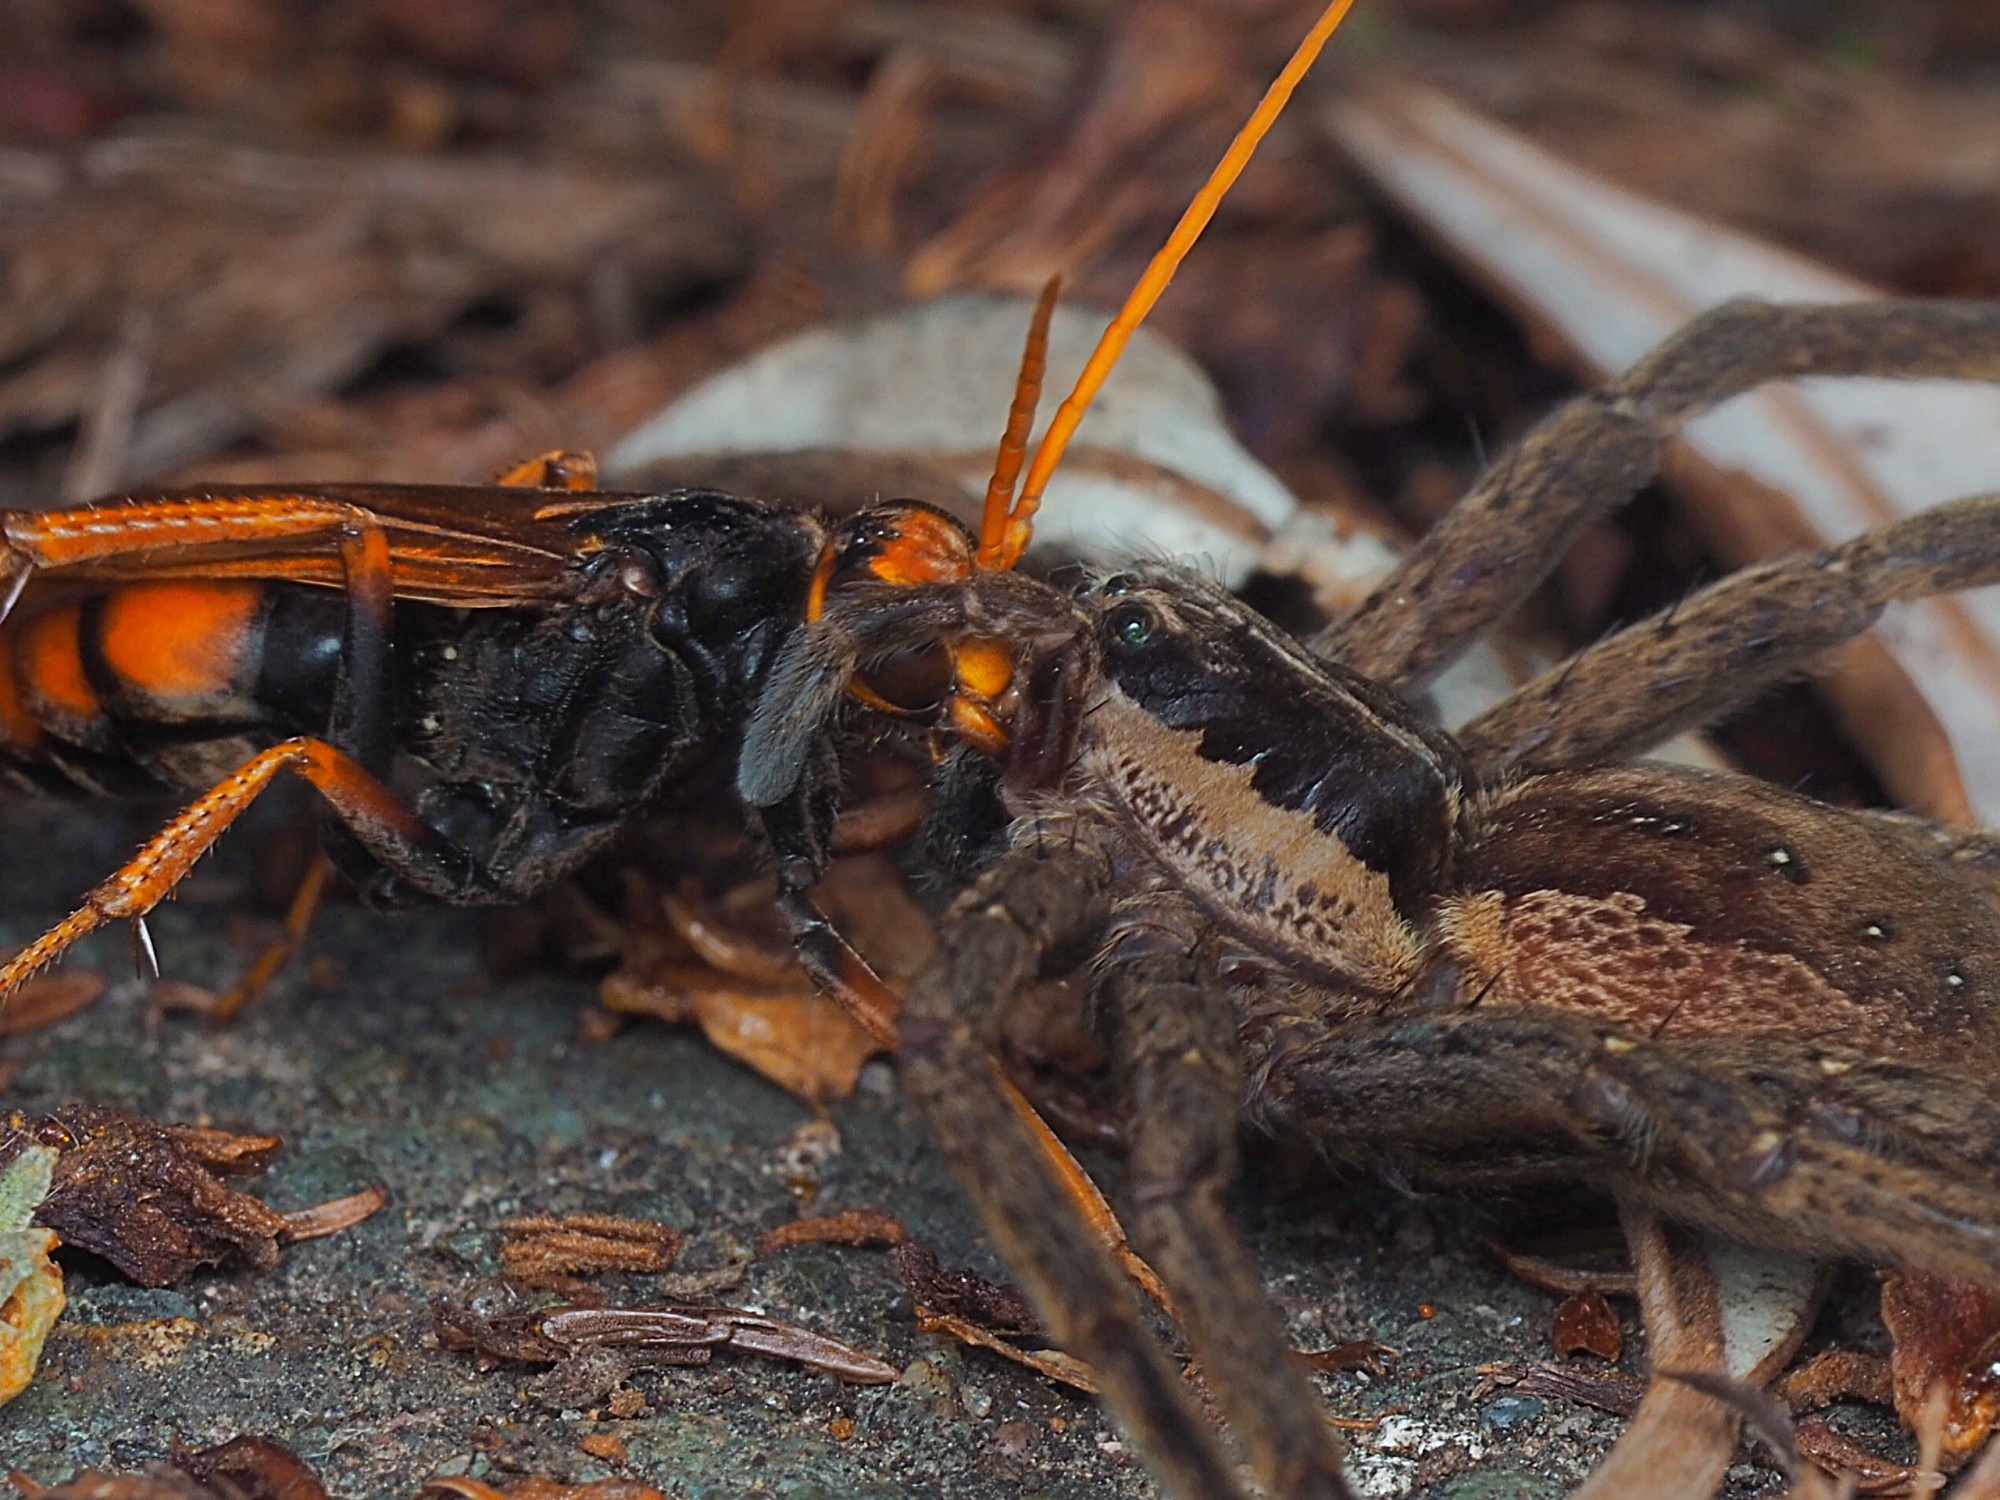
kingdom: Animalia
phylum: Arthropoda
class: Insecta
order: Hymenoptera
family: Pompilidae
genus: Cryptocheilus
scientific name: Cryptocheilus australis
